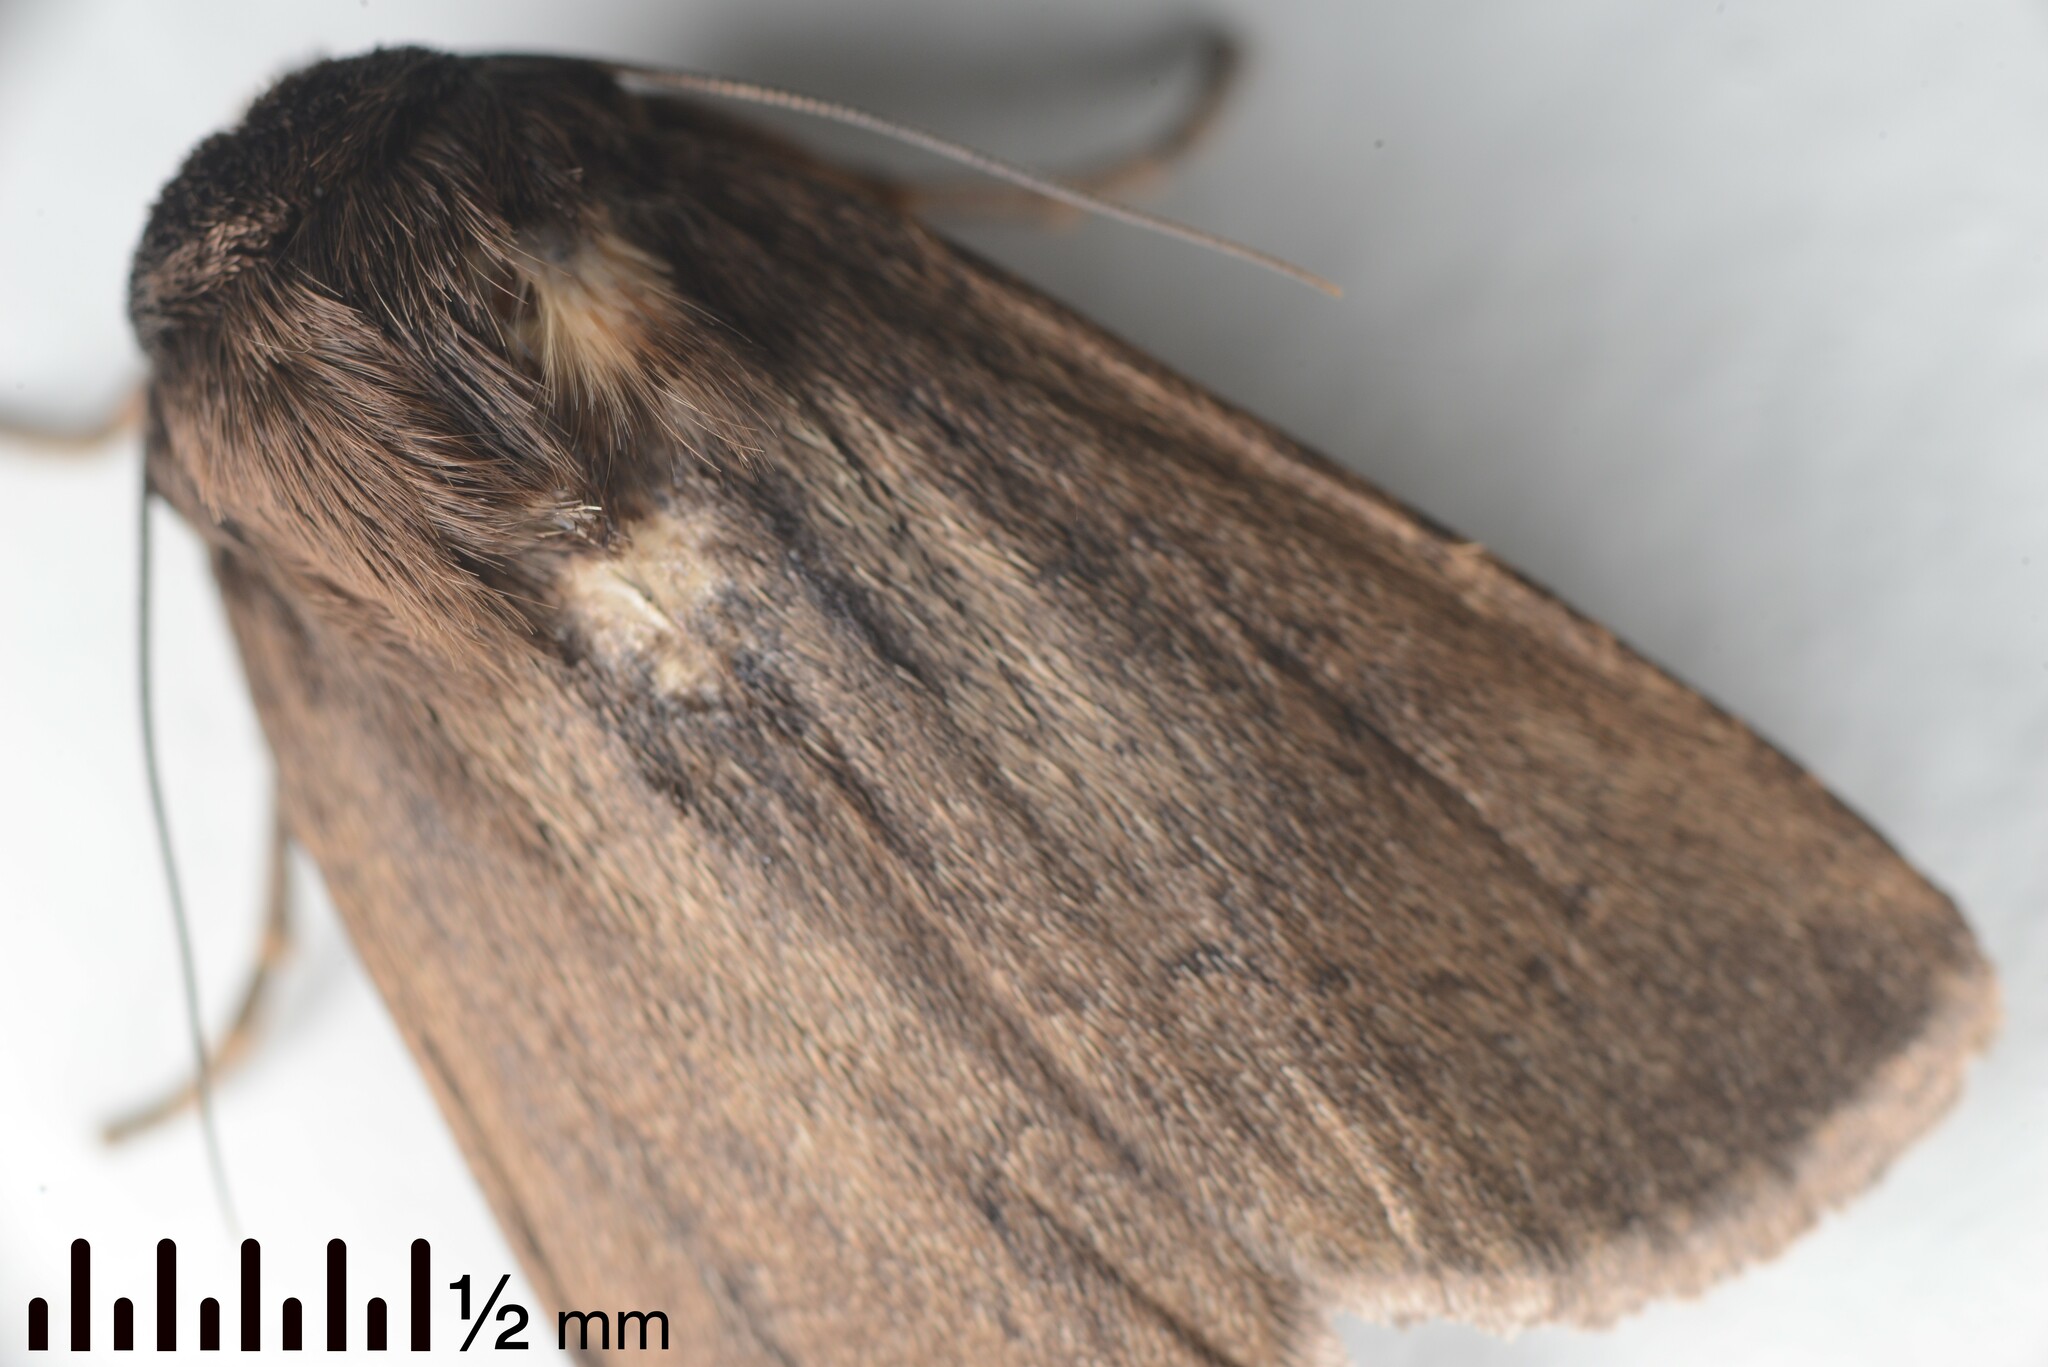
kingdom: Animalia
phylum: Arthropoda
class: Insecta
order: Lepidoptera
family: Noctuidae
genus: Bityla
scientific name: Bityla defigurata
